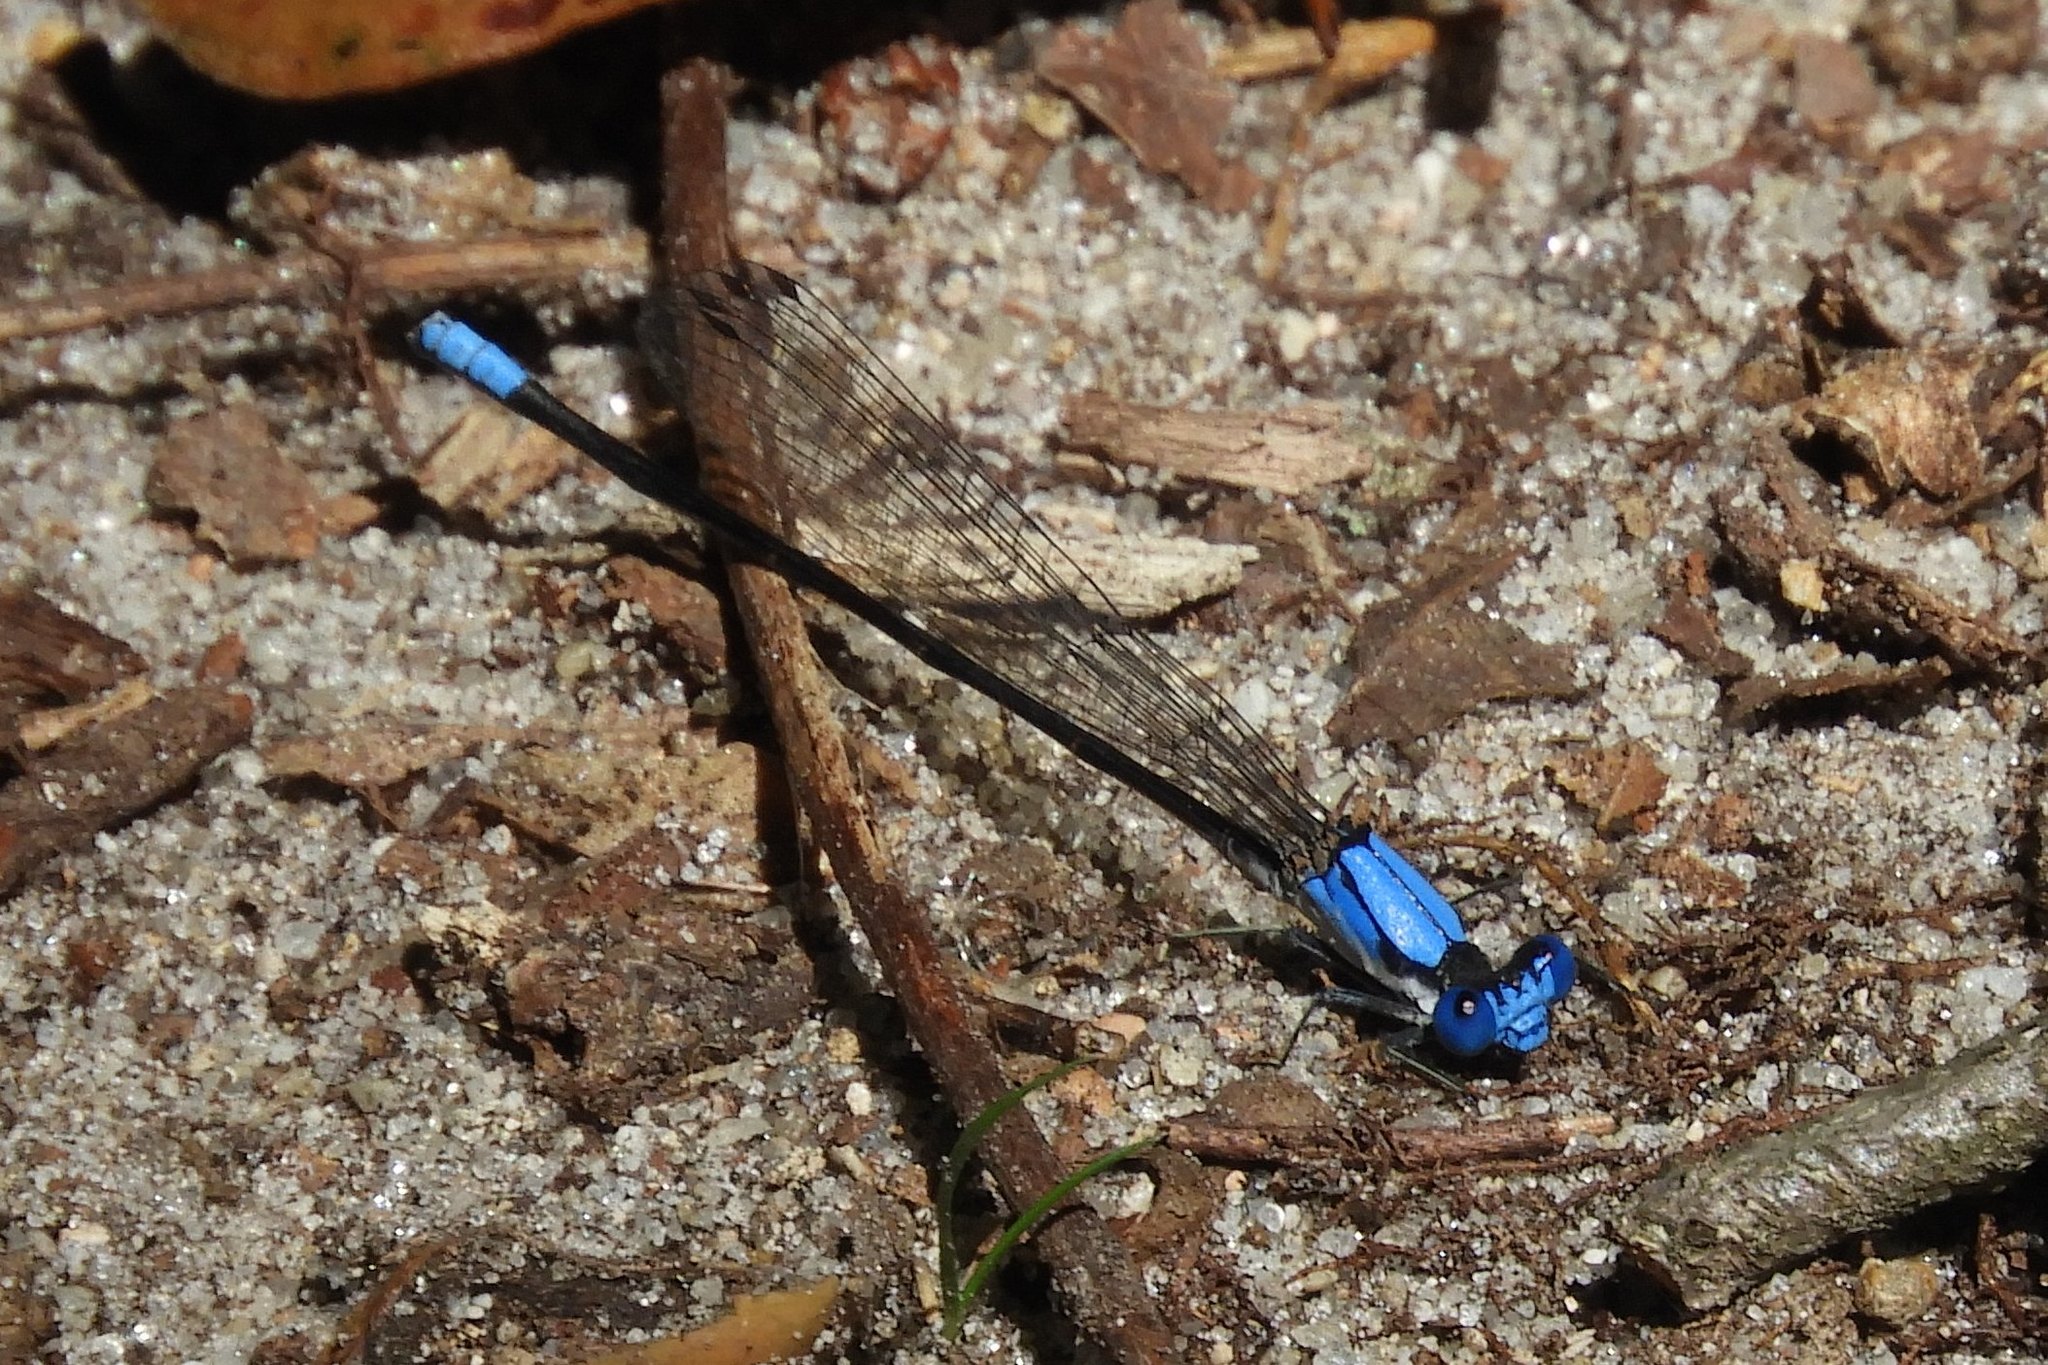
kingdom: Animalia
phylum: Arthropoda
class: Insecta
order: Odonata
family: Coenagrionidae
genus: Argia
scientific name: Argia apicalis
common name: Blue-fronted dancer
